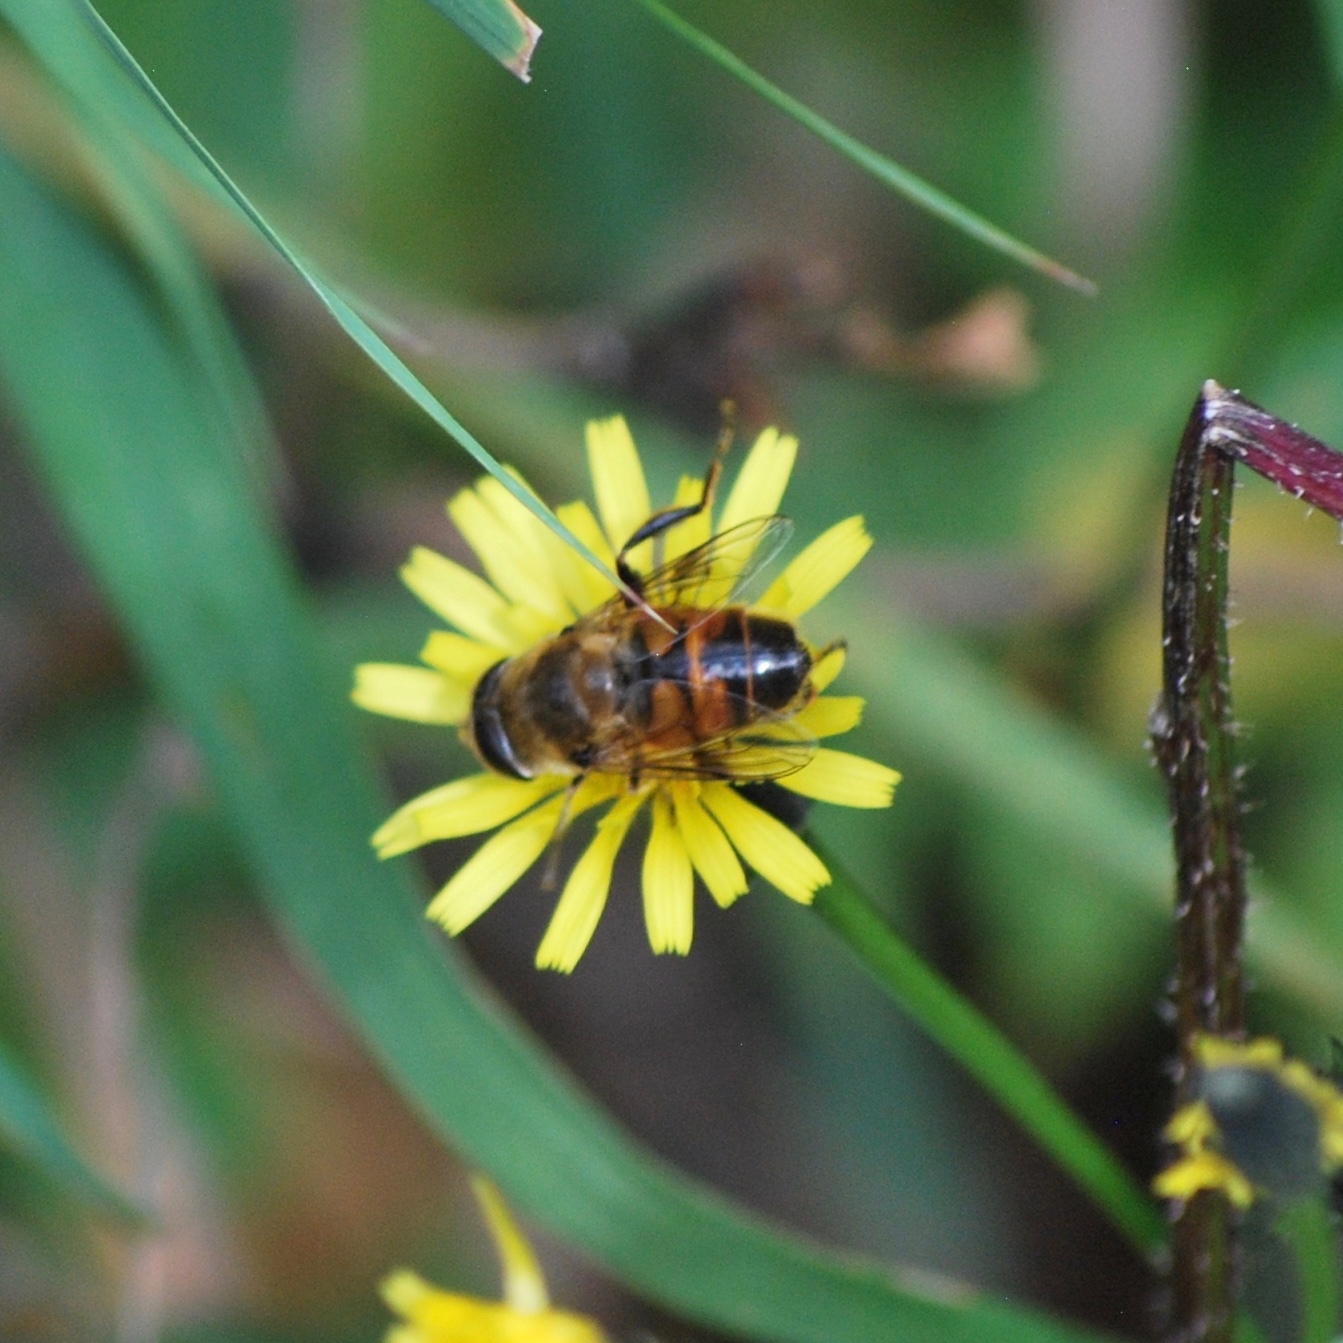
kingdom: Animalia
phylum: Arthropoda
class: Insecta
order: Diptera
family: Syrphidae
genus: Eristalis
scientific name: Eristalis tenax
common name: Drone fly
